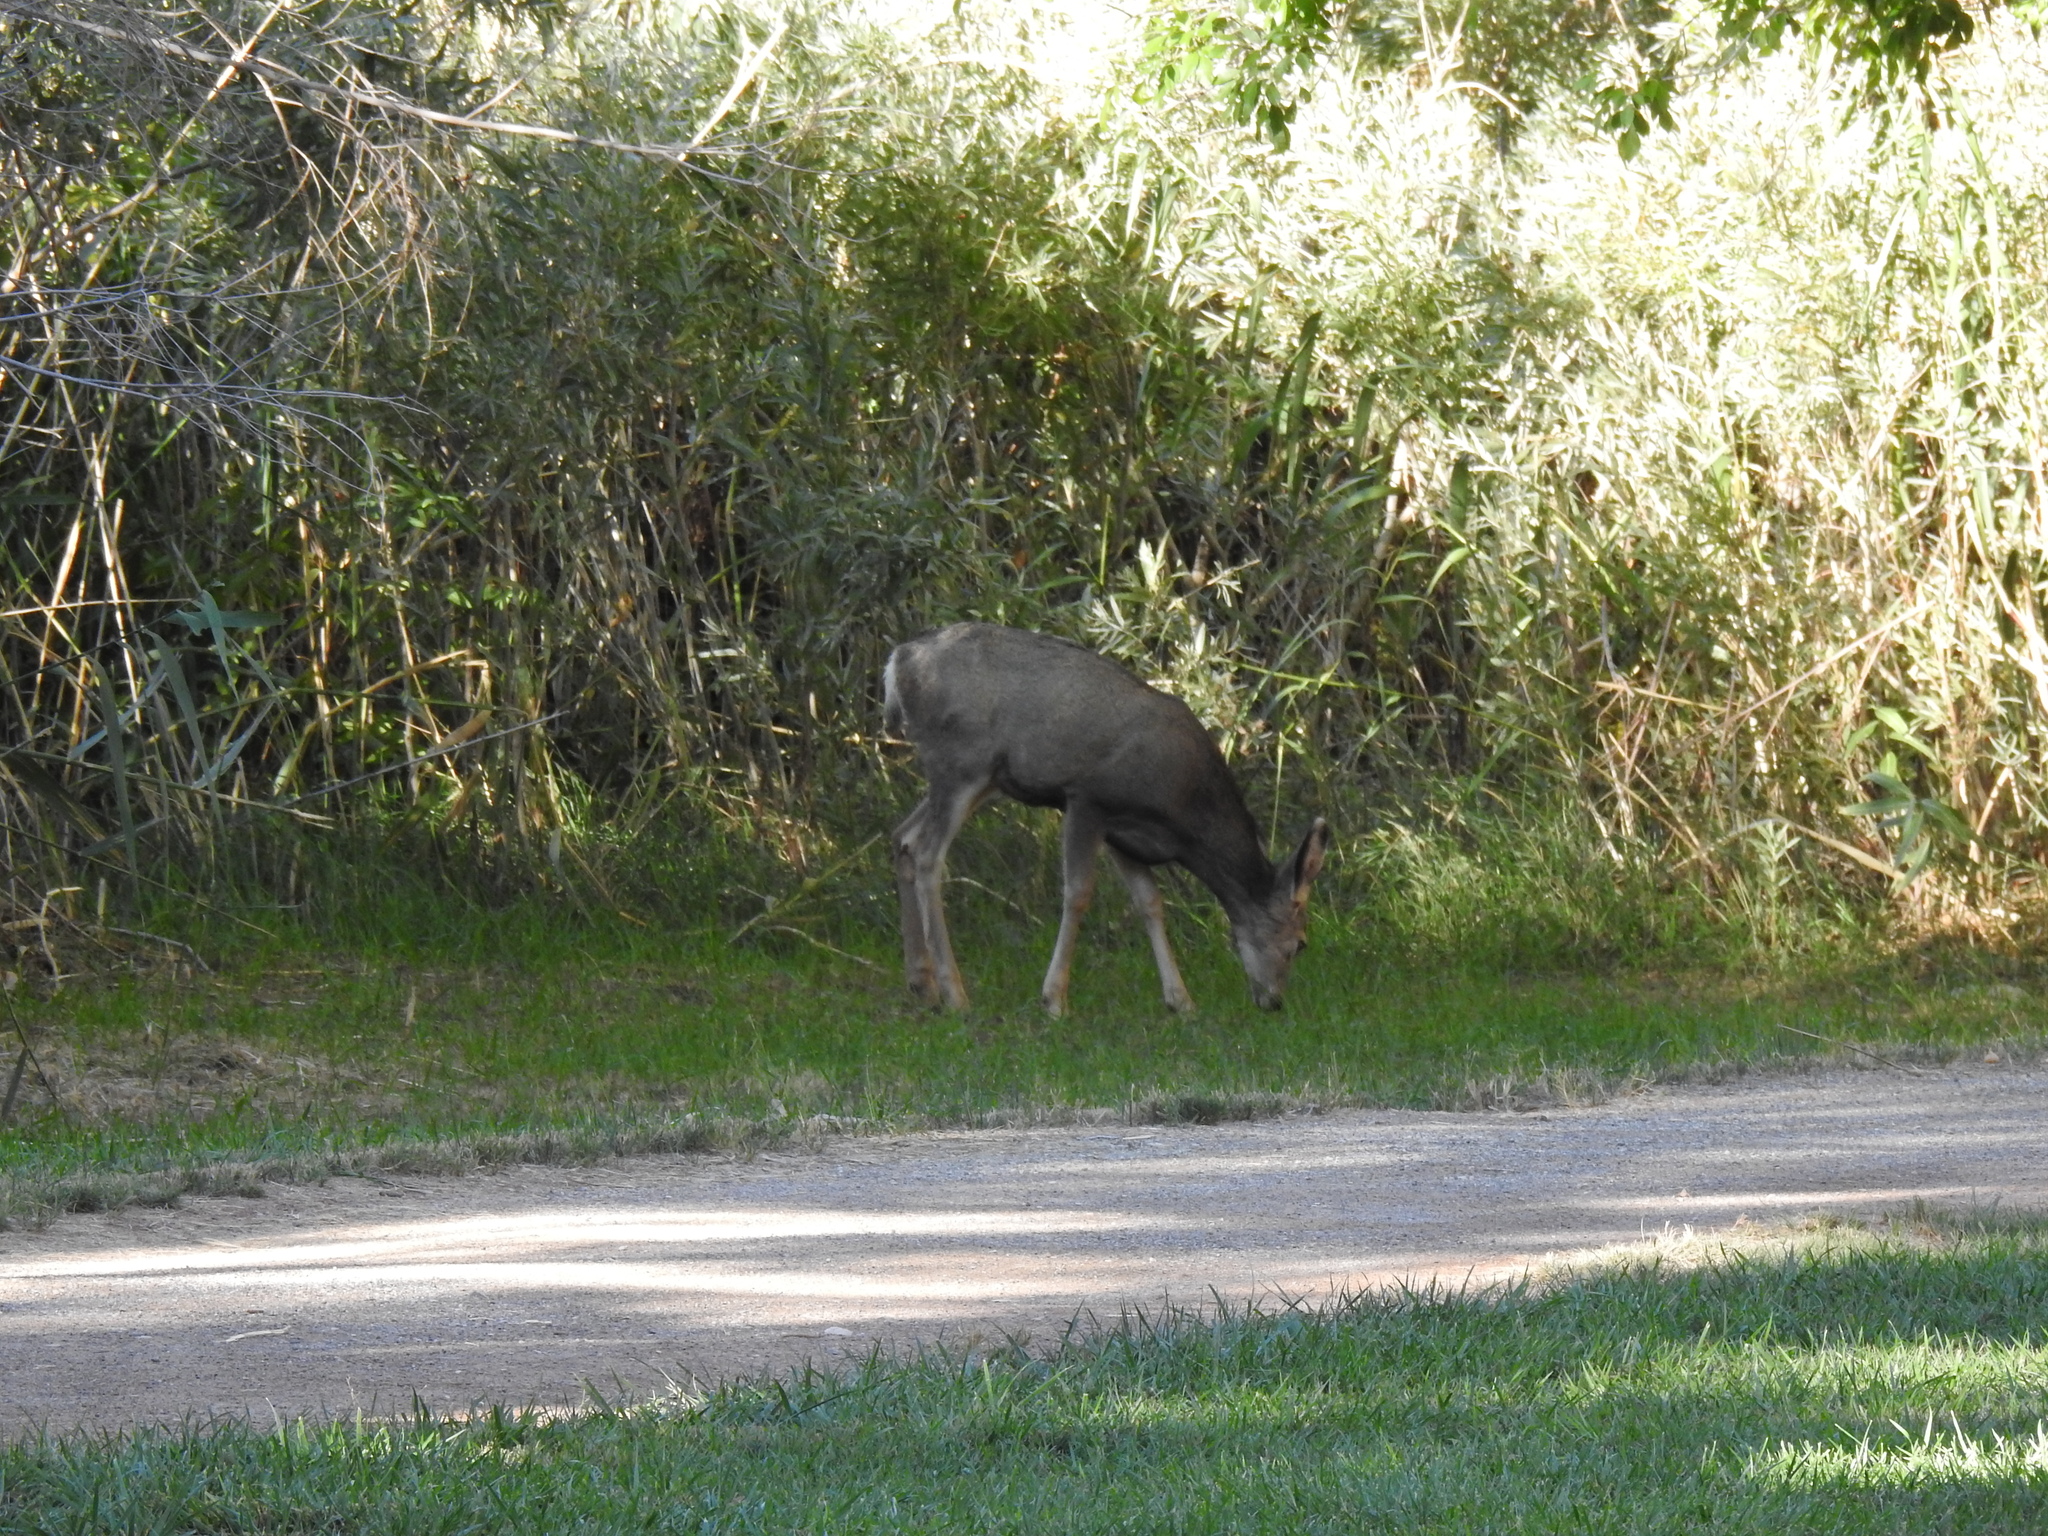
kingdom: Animalia
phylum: Chordata
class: Mammalia
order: Artiodactyla
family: Cervidae
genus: Odocoileus
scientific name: Odocoileus hemionus
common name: Mule deer
